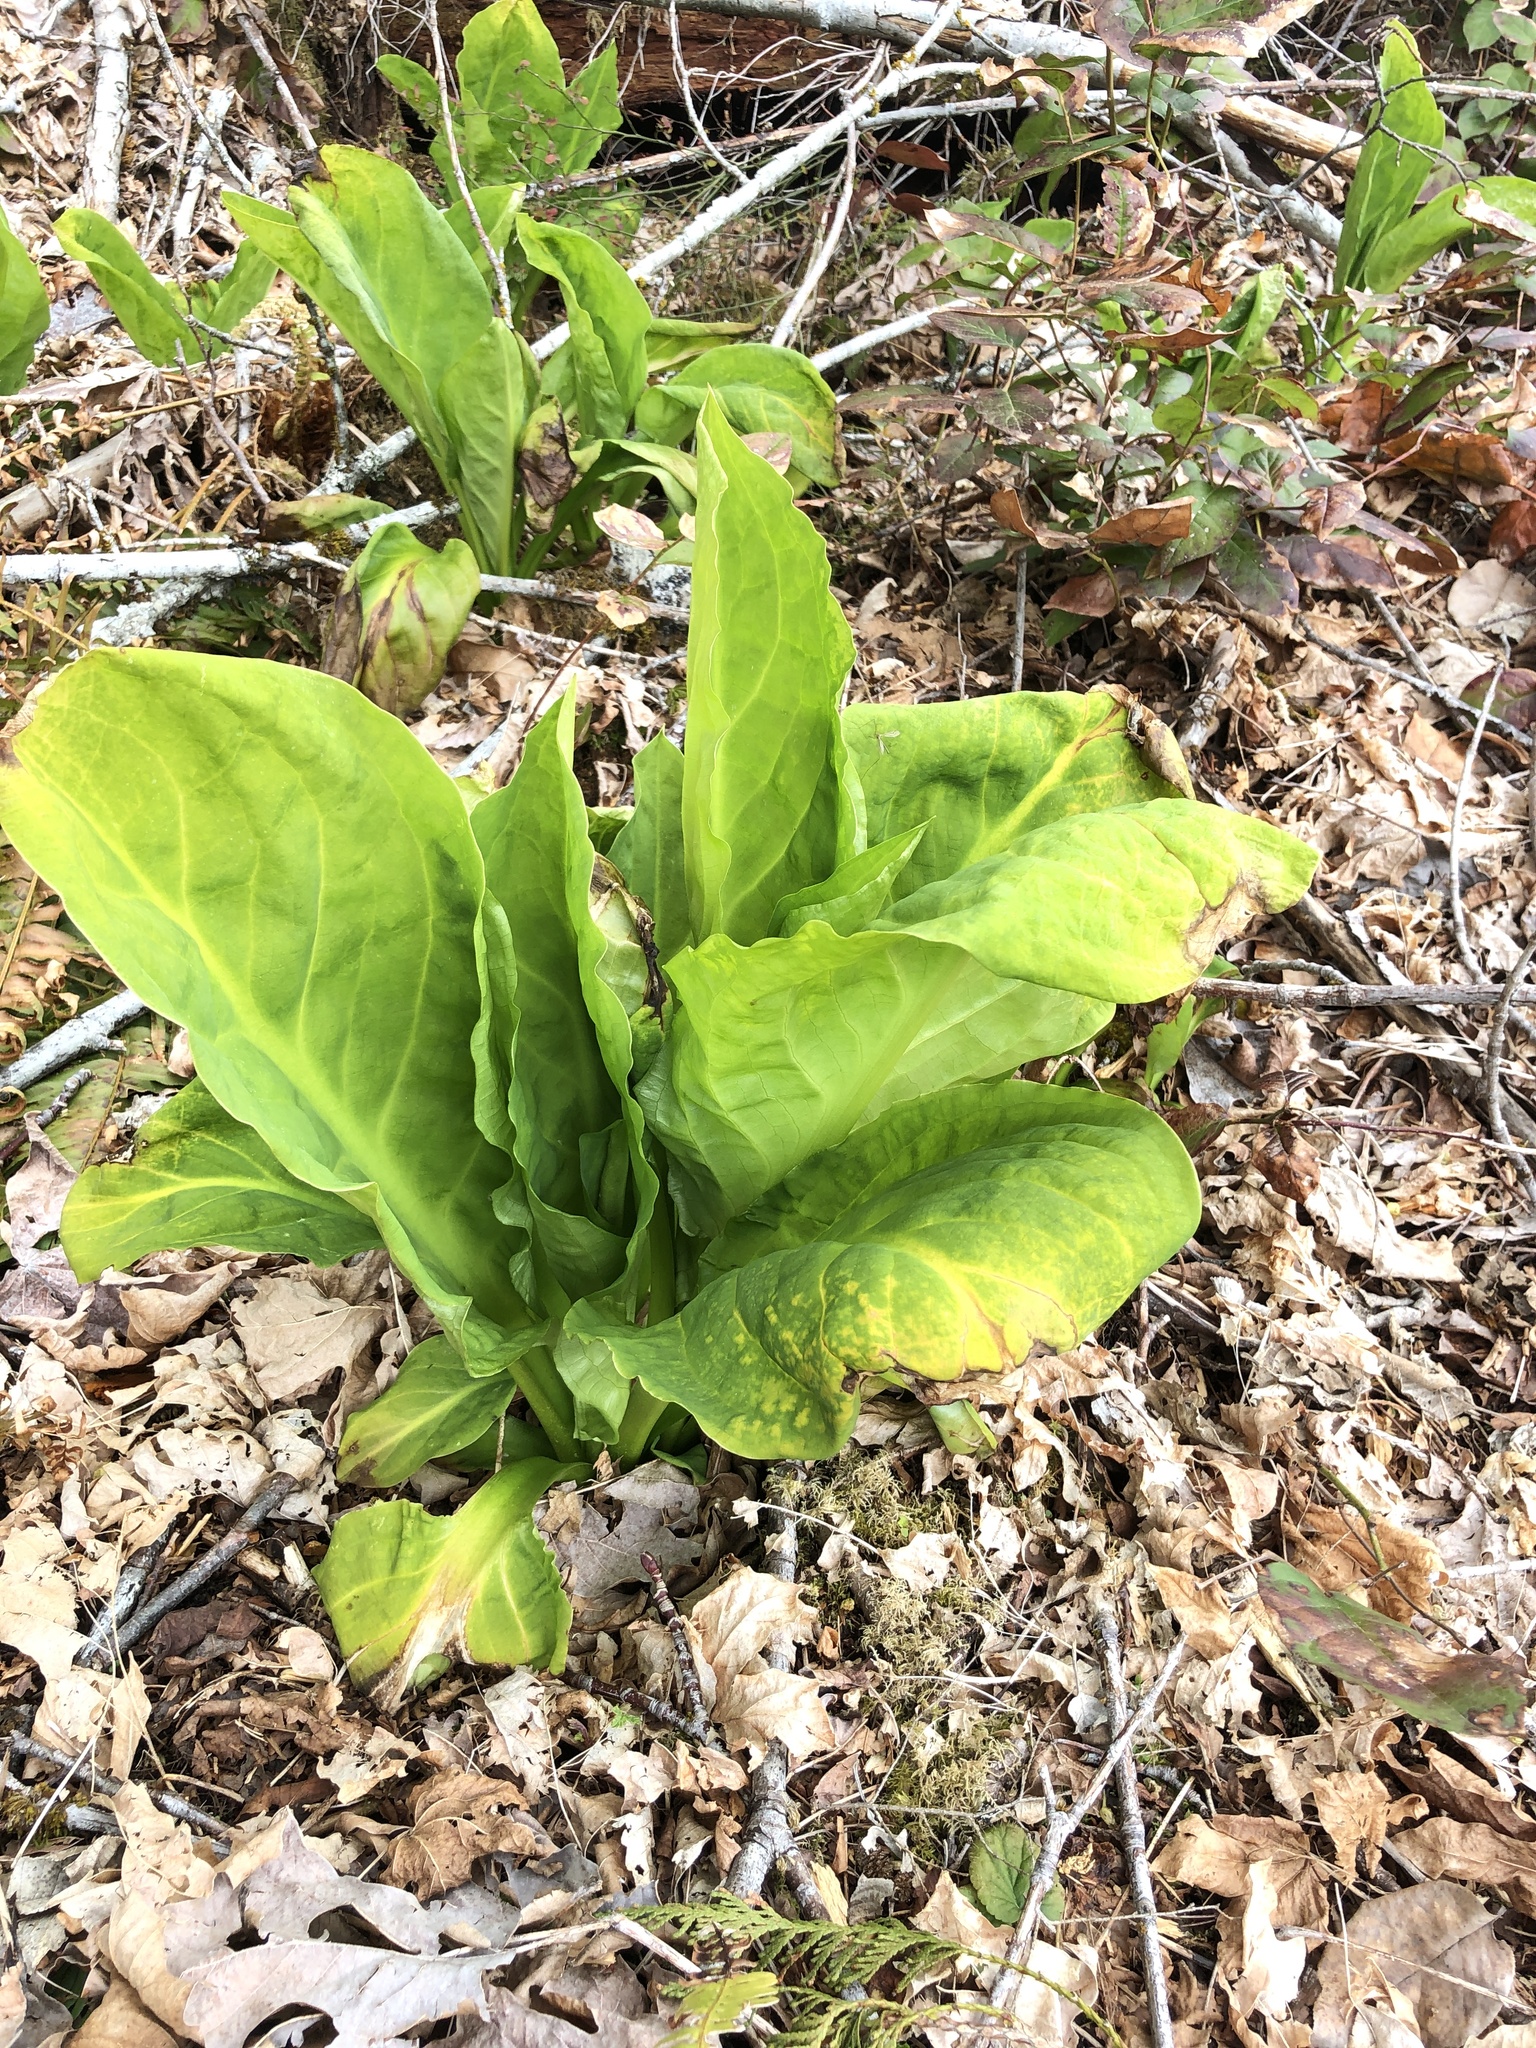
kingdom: Plantae
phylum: Tracheophyta
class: Liliopsida
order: Alismatales
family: Araceae
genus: Lysichiton
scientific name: Lysichiton americanus
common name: American skunk cabbage
